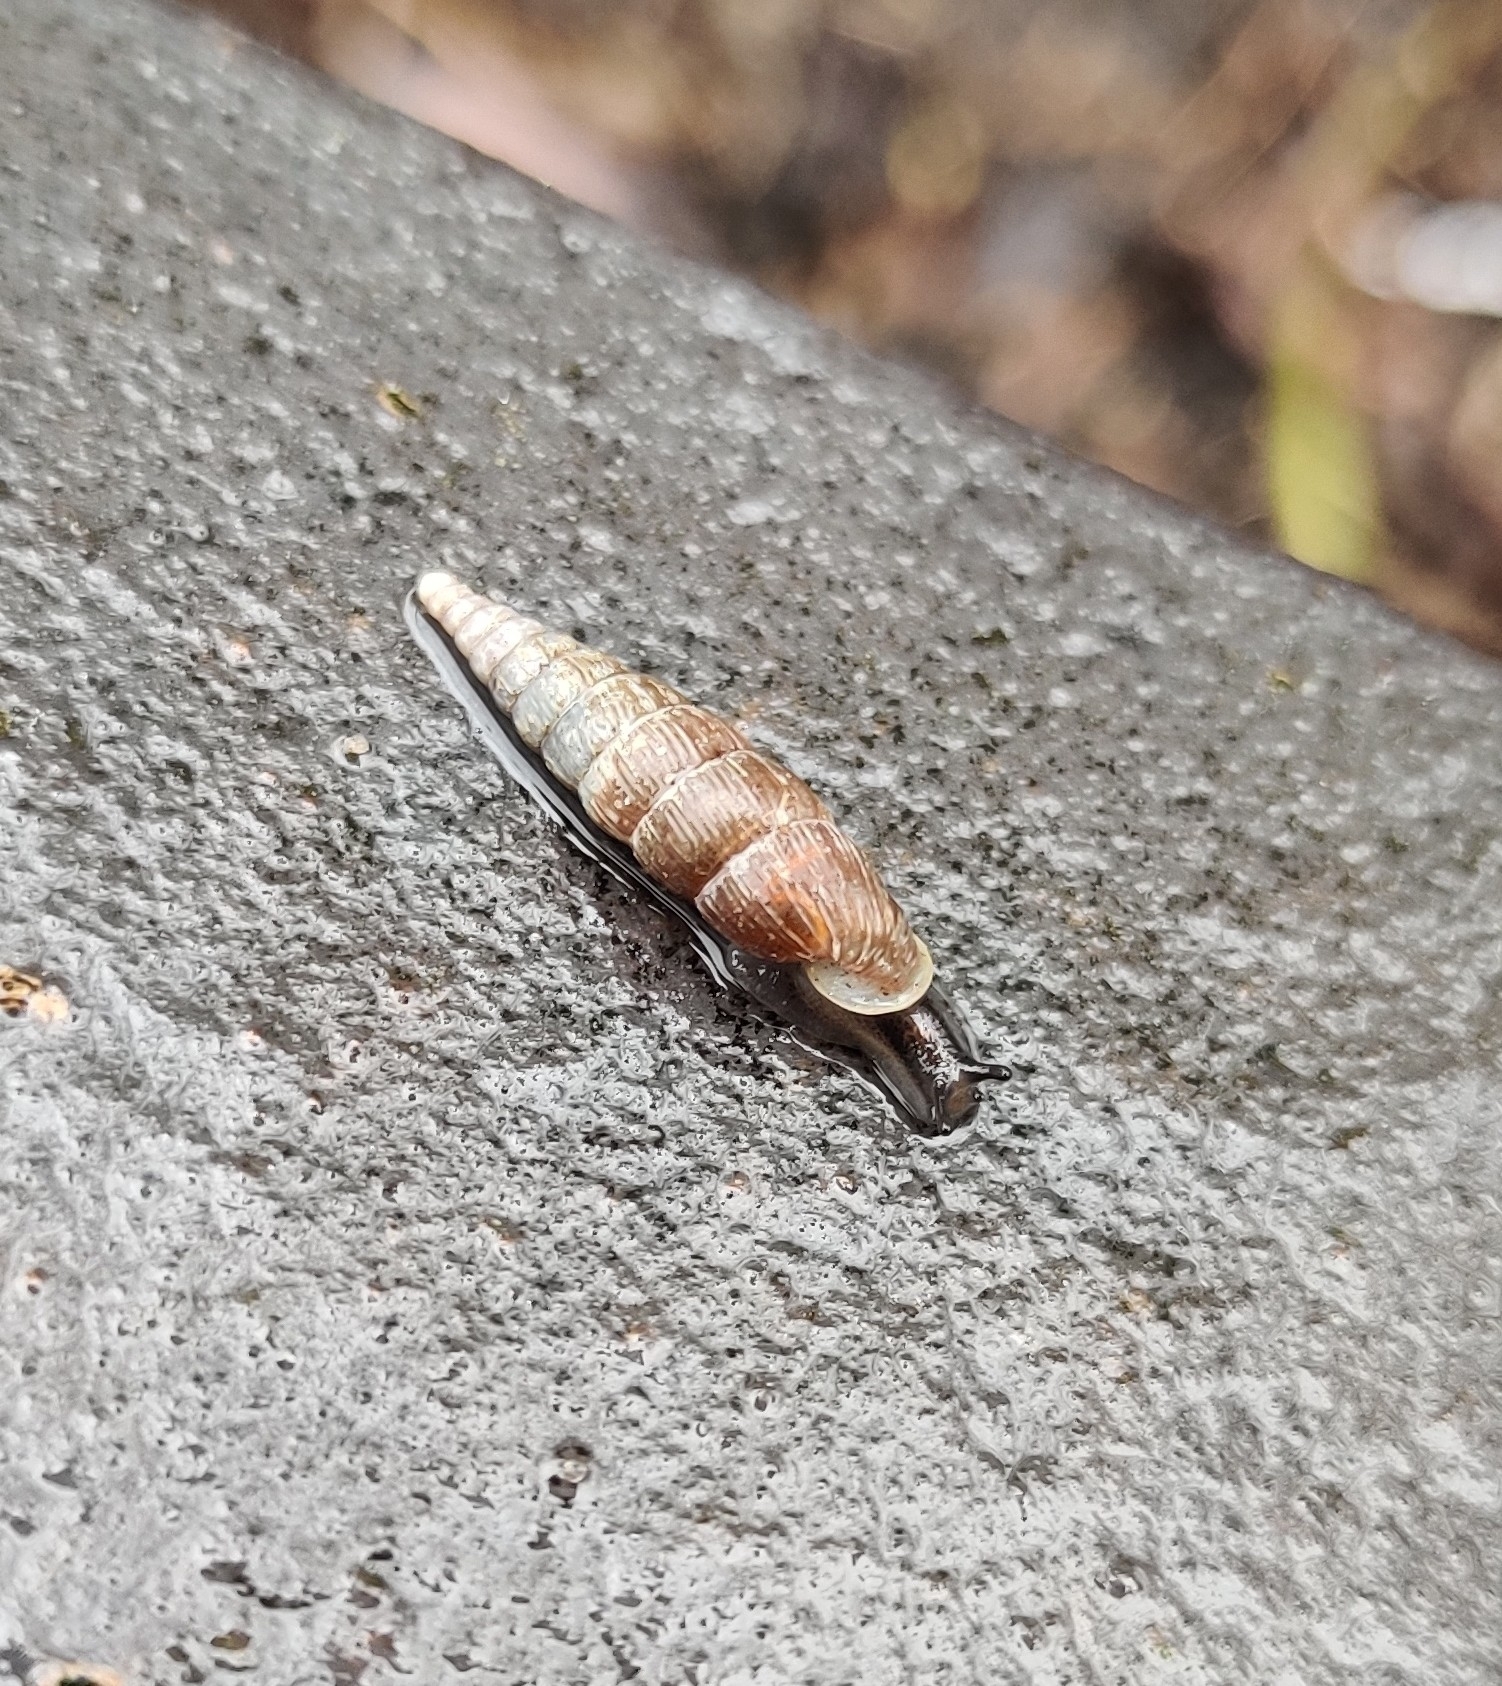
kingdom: Animalia
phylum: Mollusca
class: Gastropoda
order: Stylommatophora
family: Clausiliidae
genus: Alinda
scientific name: Alinda biplicata
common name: Thames door snail
